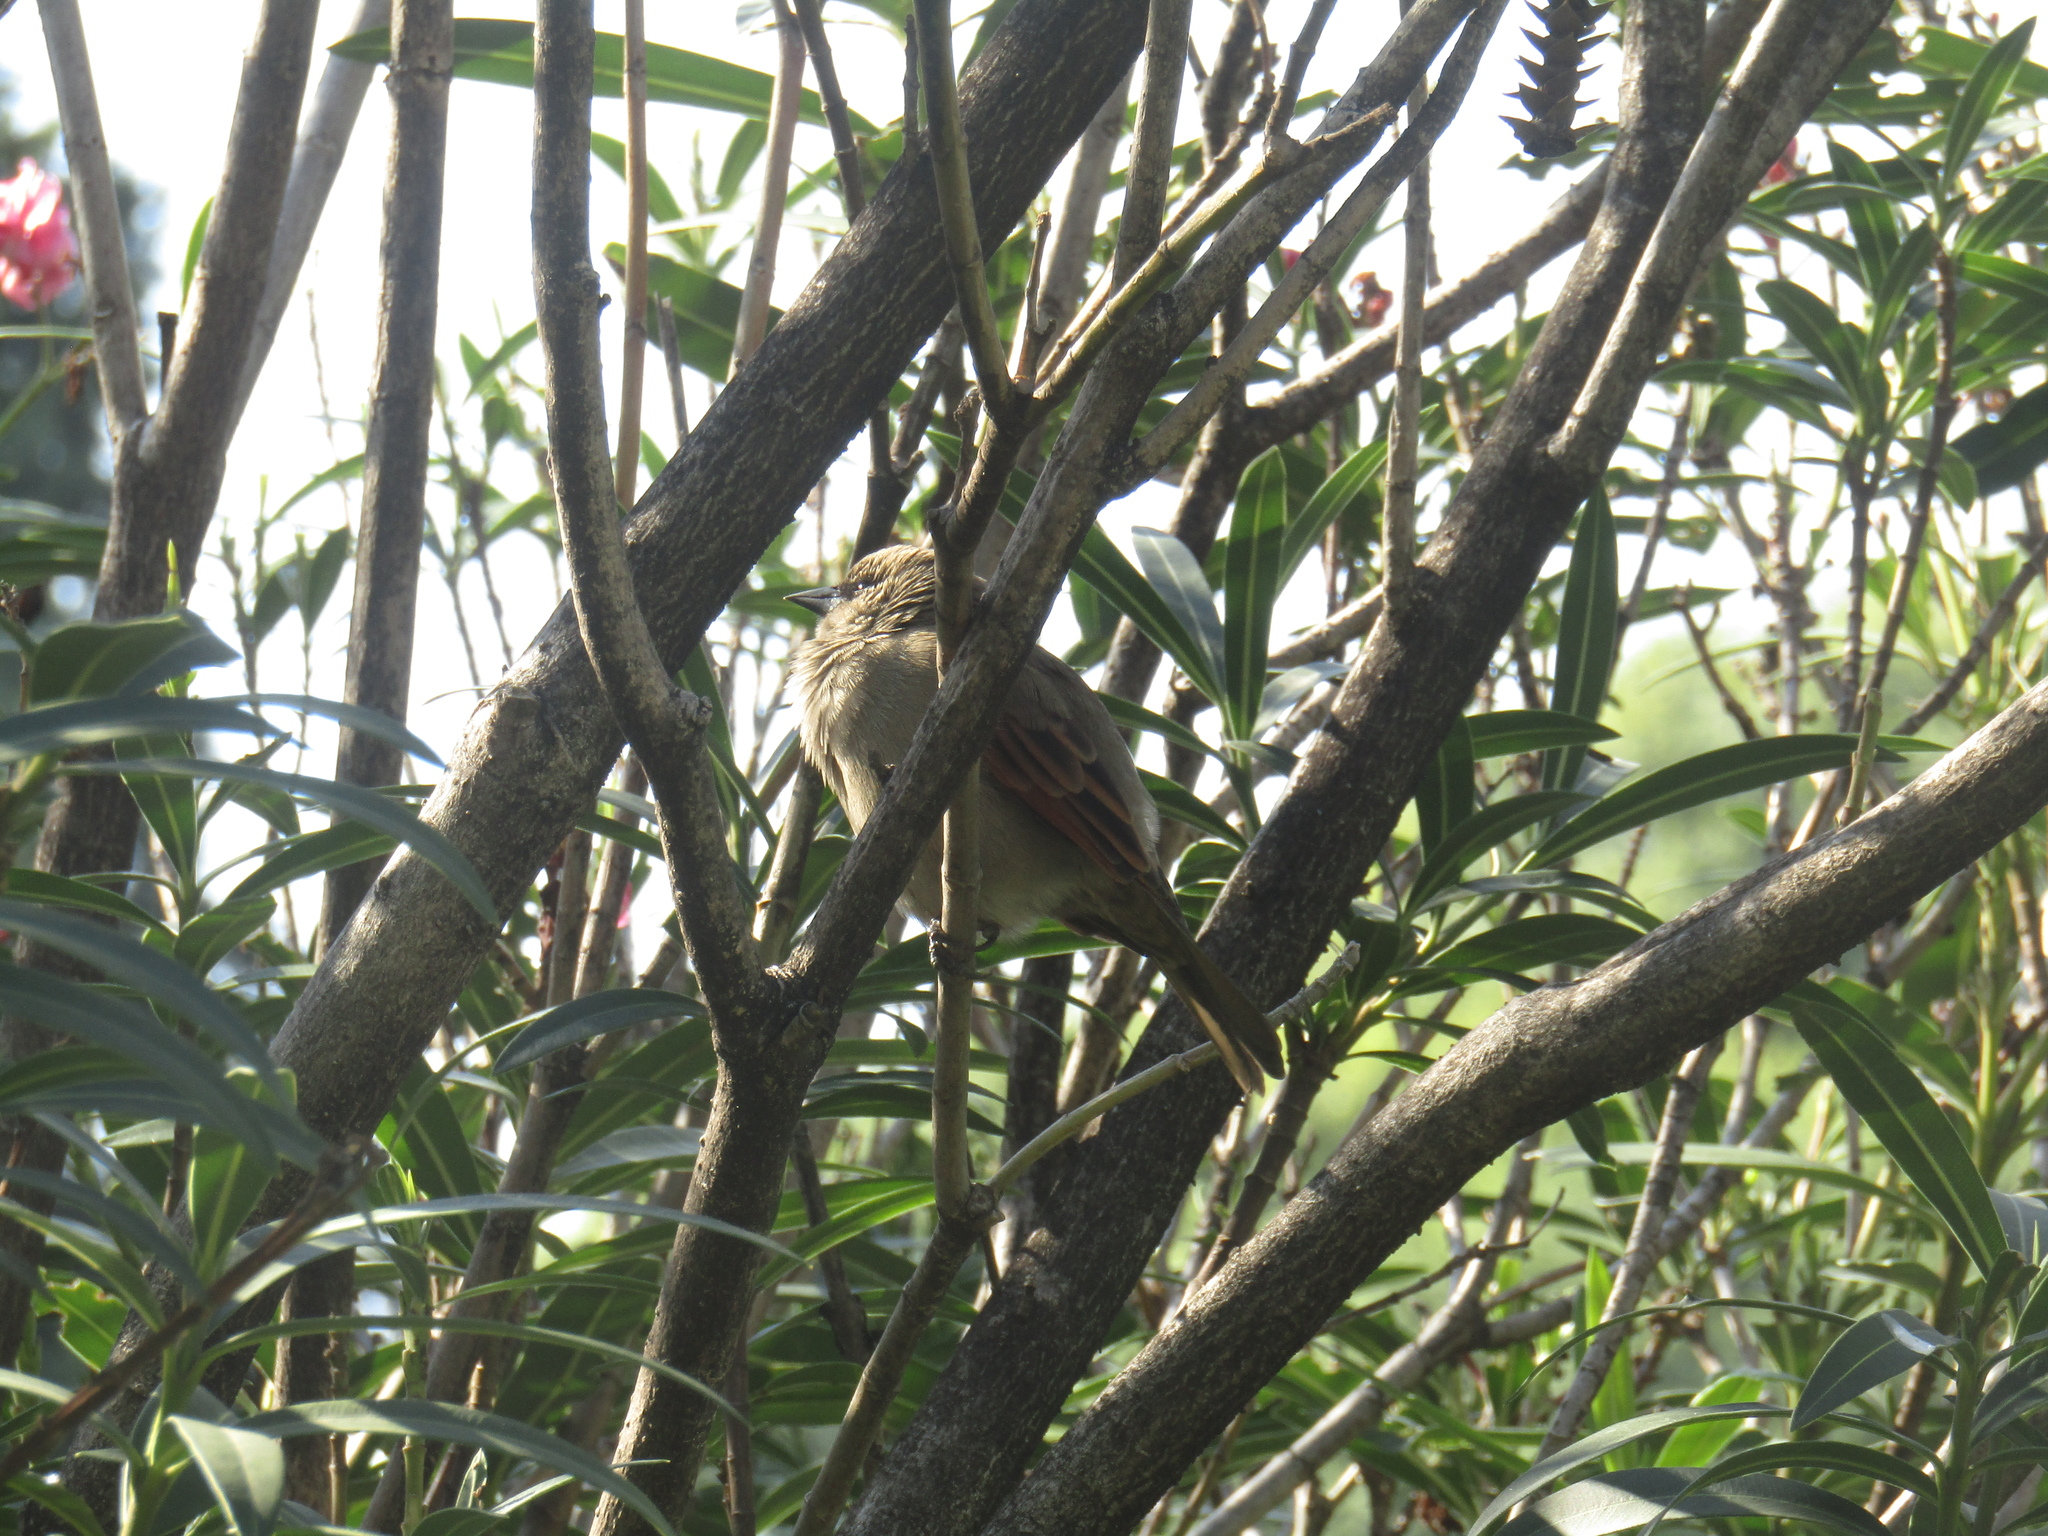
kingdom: Animalia
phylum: Chordata
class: Aves
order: Passeriformes
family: Icteridae
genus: Agelaioides
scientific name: Agelaioides badius
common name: Baywing
